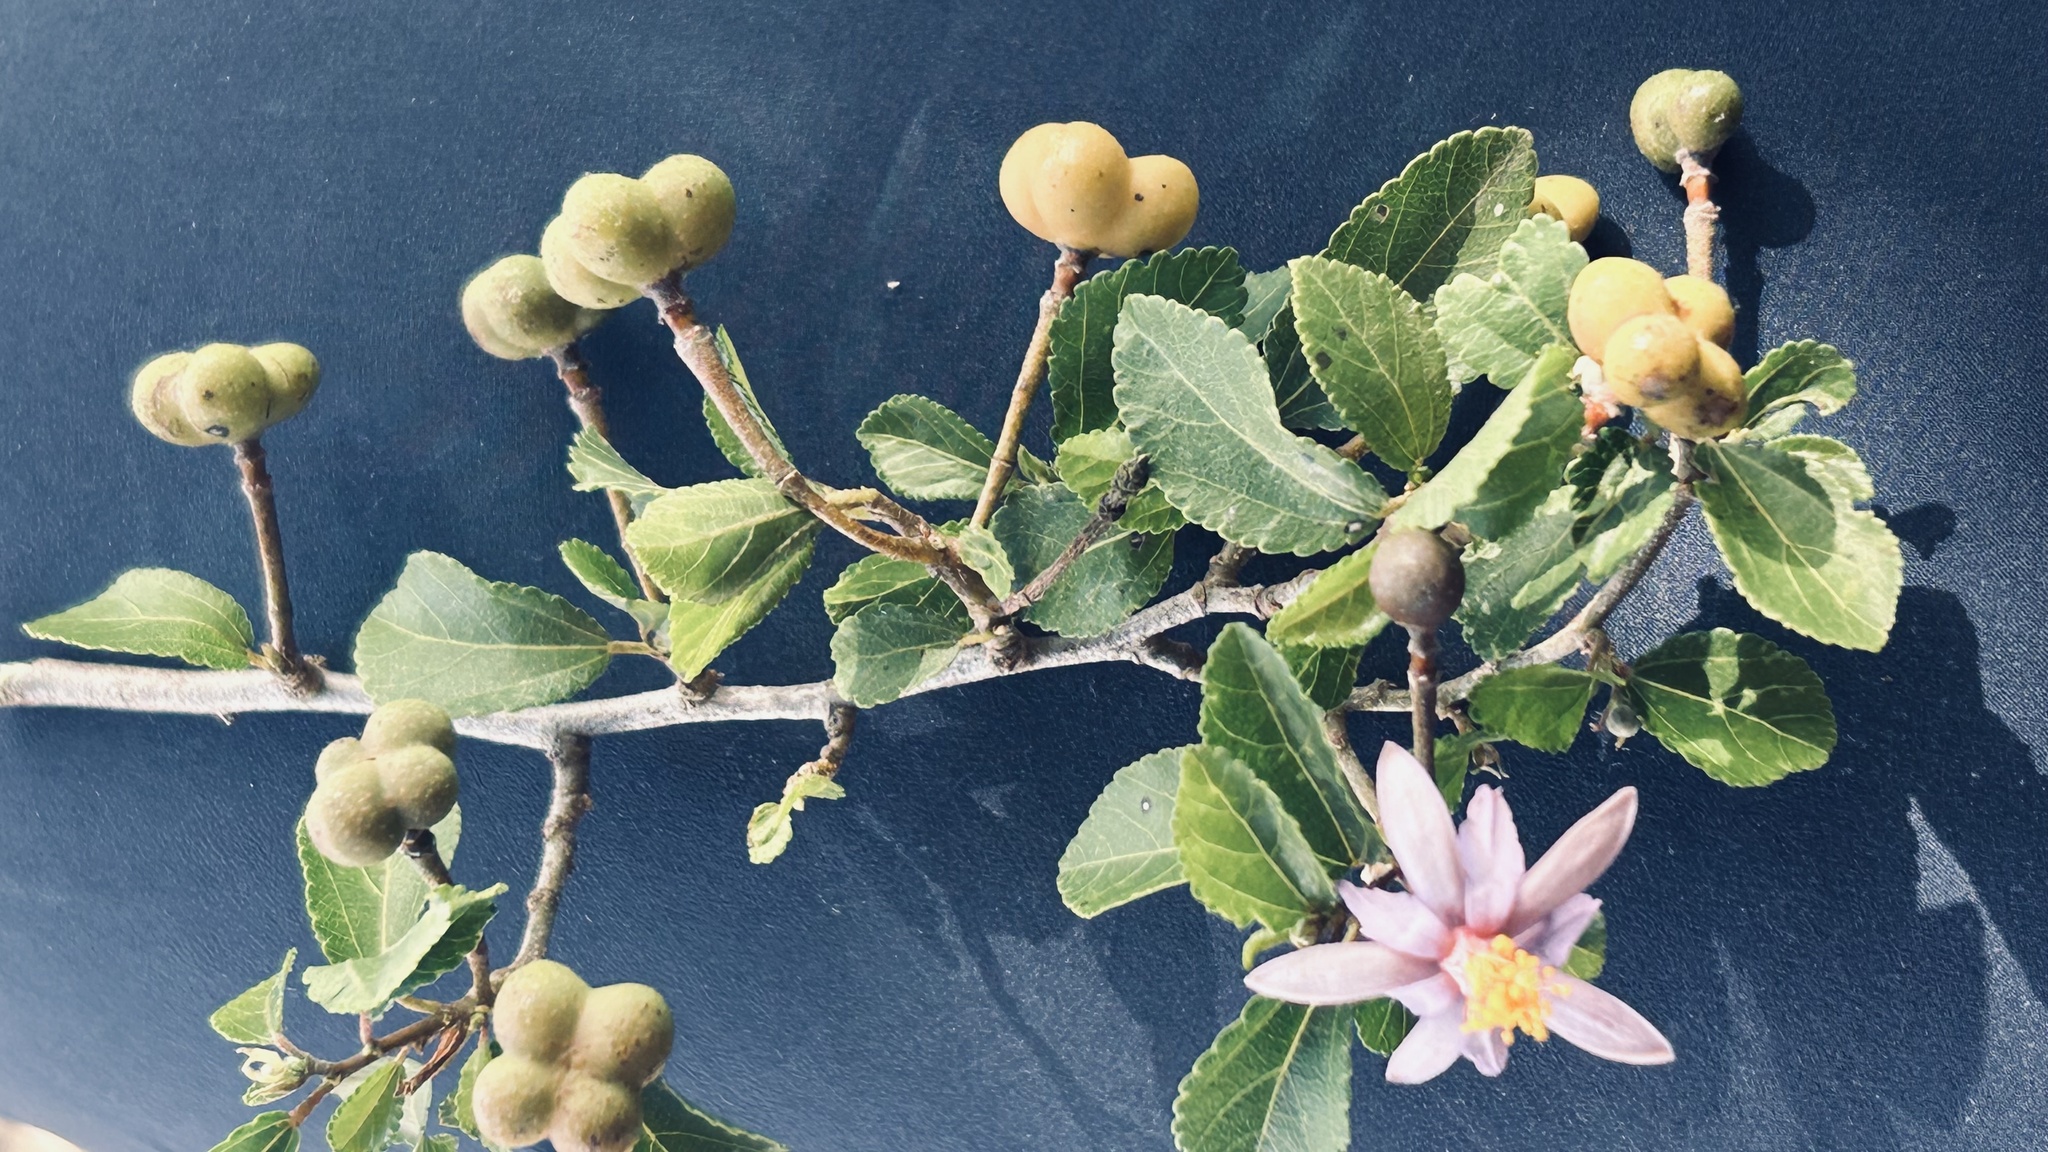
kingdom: Plantae
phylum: Tracheophyta
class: Magnoliopsida
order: Malvales
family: Malvaceae
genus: Grewia
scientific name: Grewia occidentalis
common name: Crossberry
